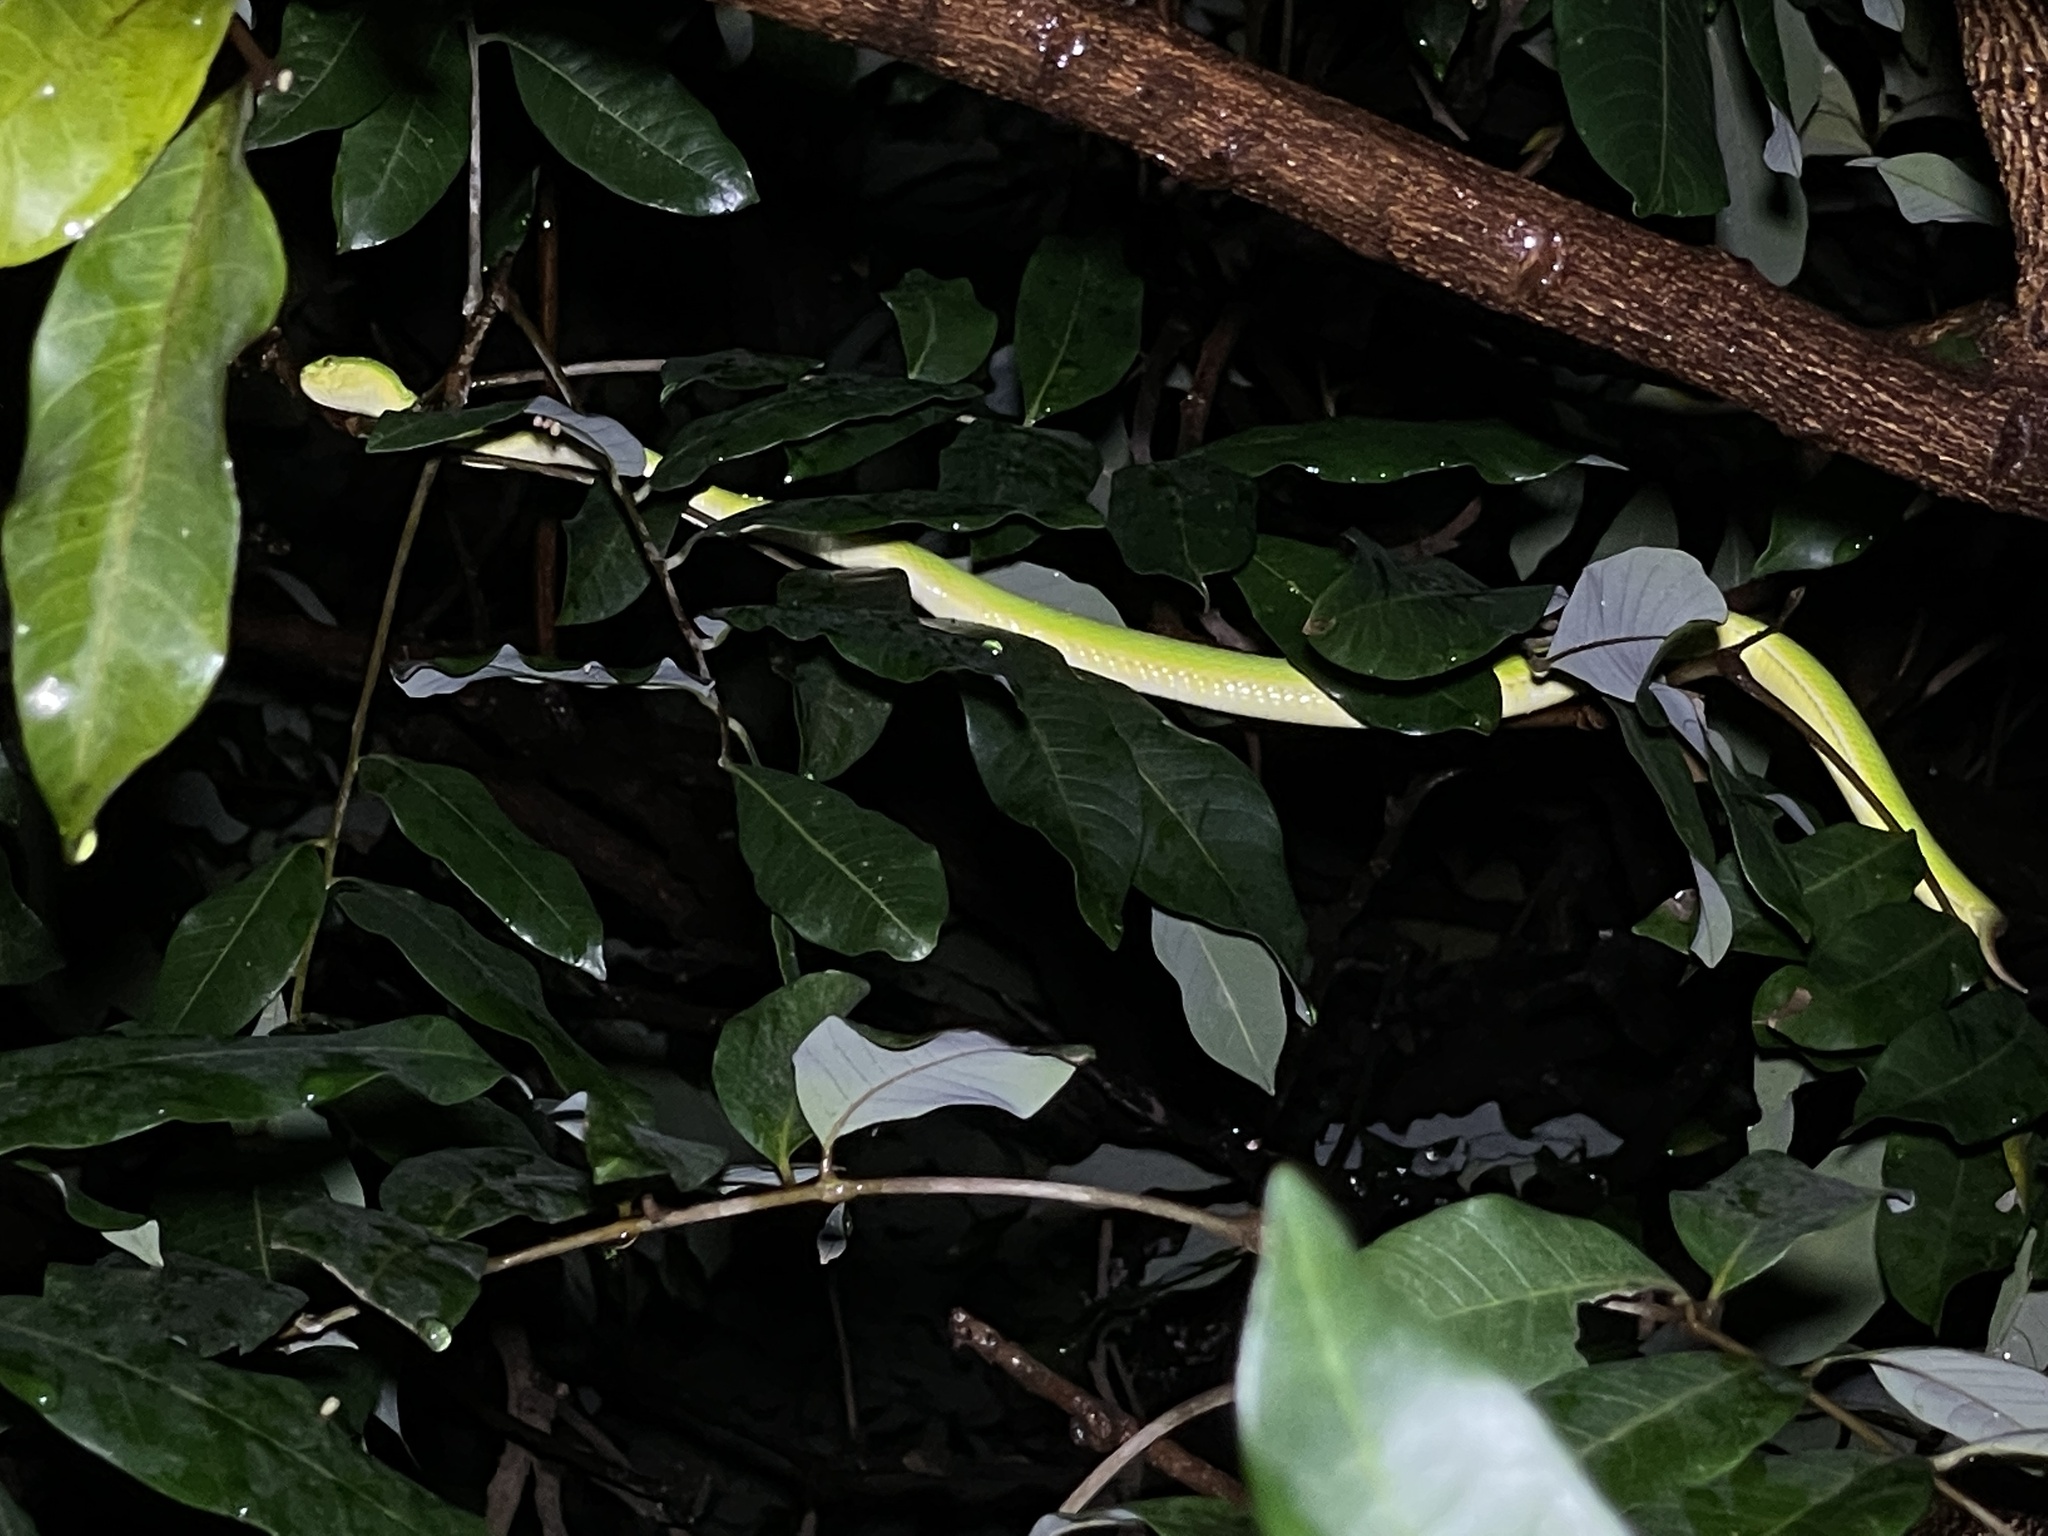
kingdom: Animalia
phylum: Chordata
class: Squamata
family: Viperidae
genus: Trimeresurus
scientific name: Trimeresurus albolabris
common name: White-lipped pitviper
